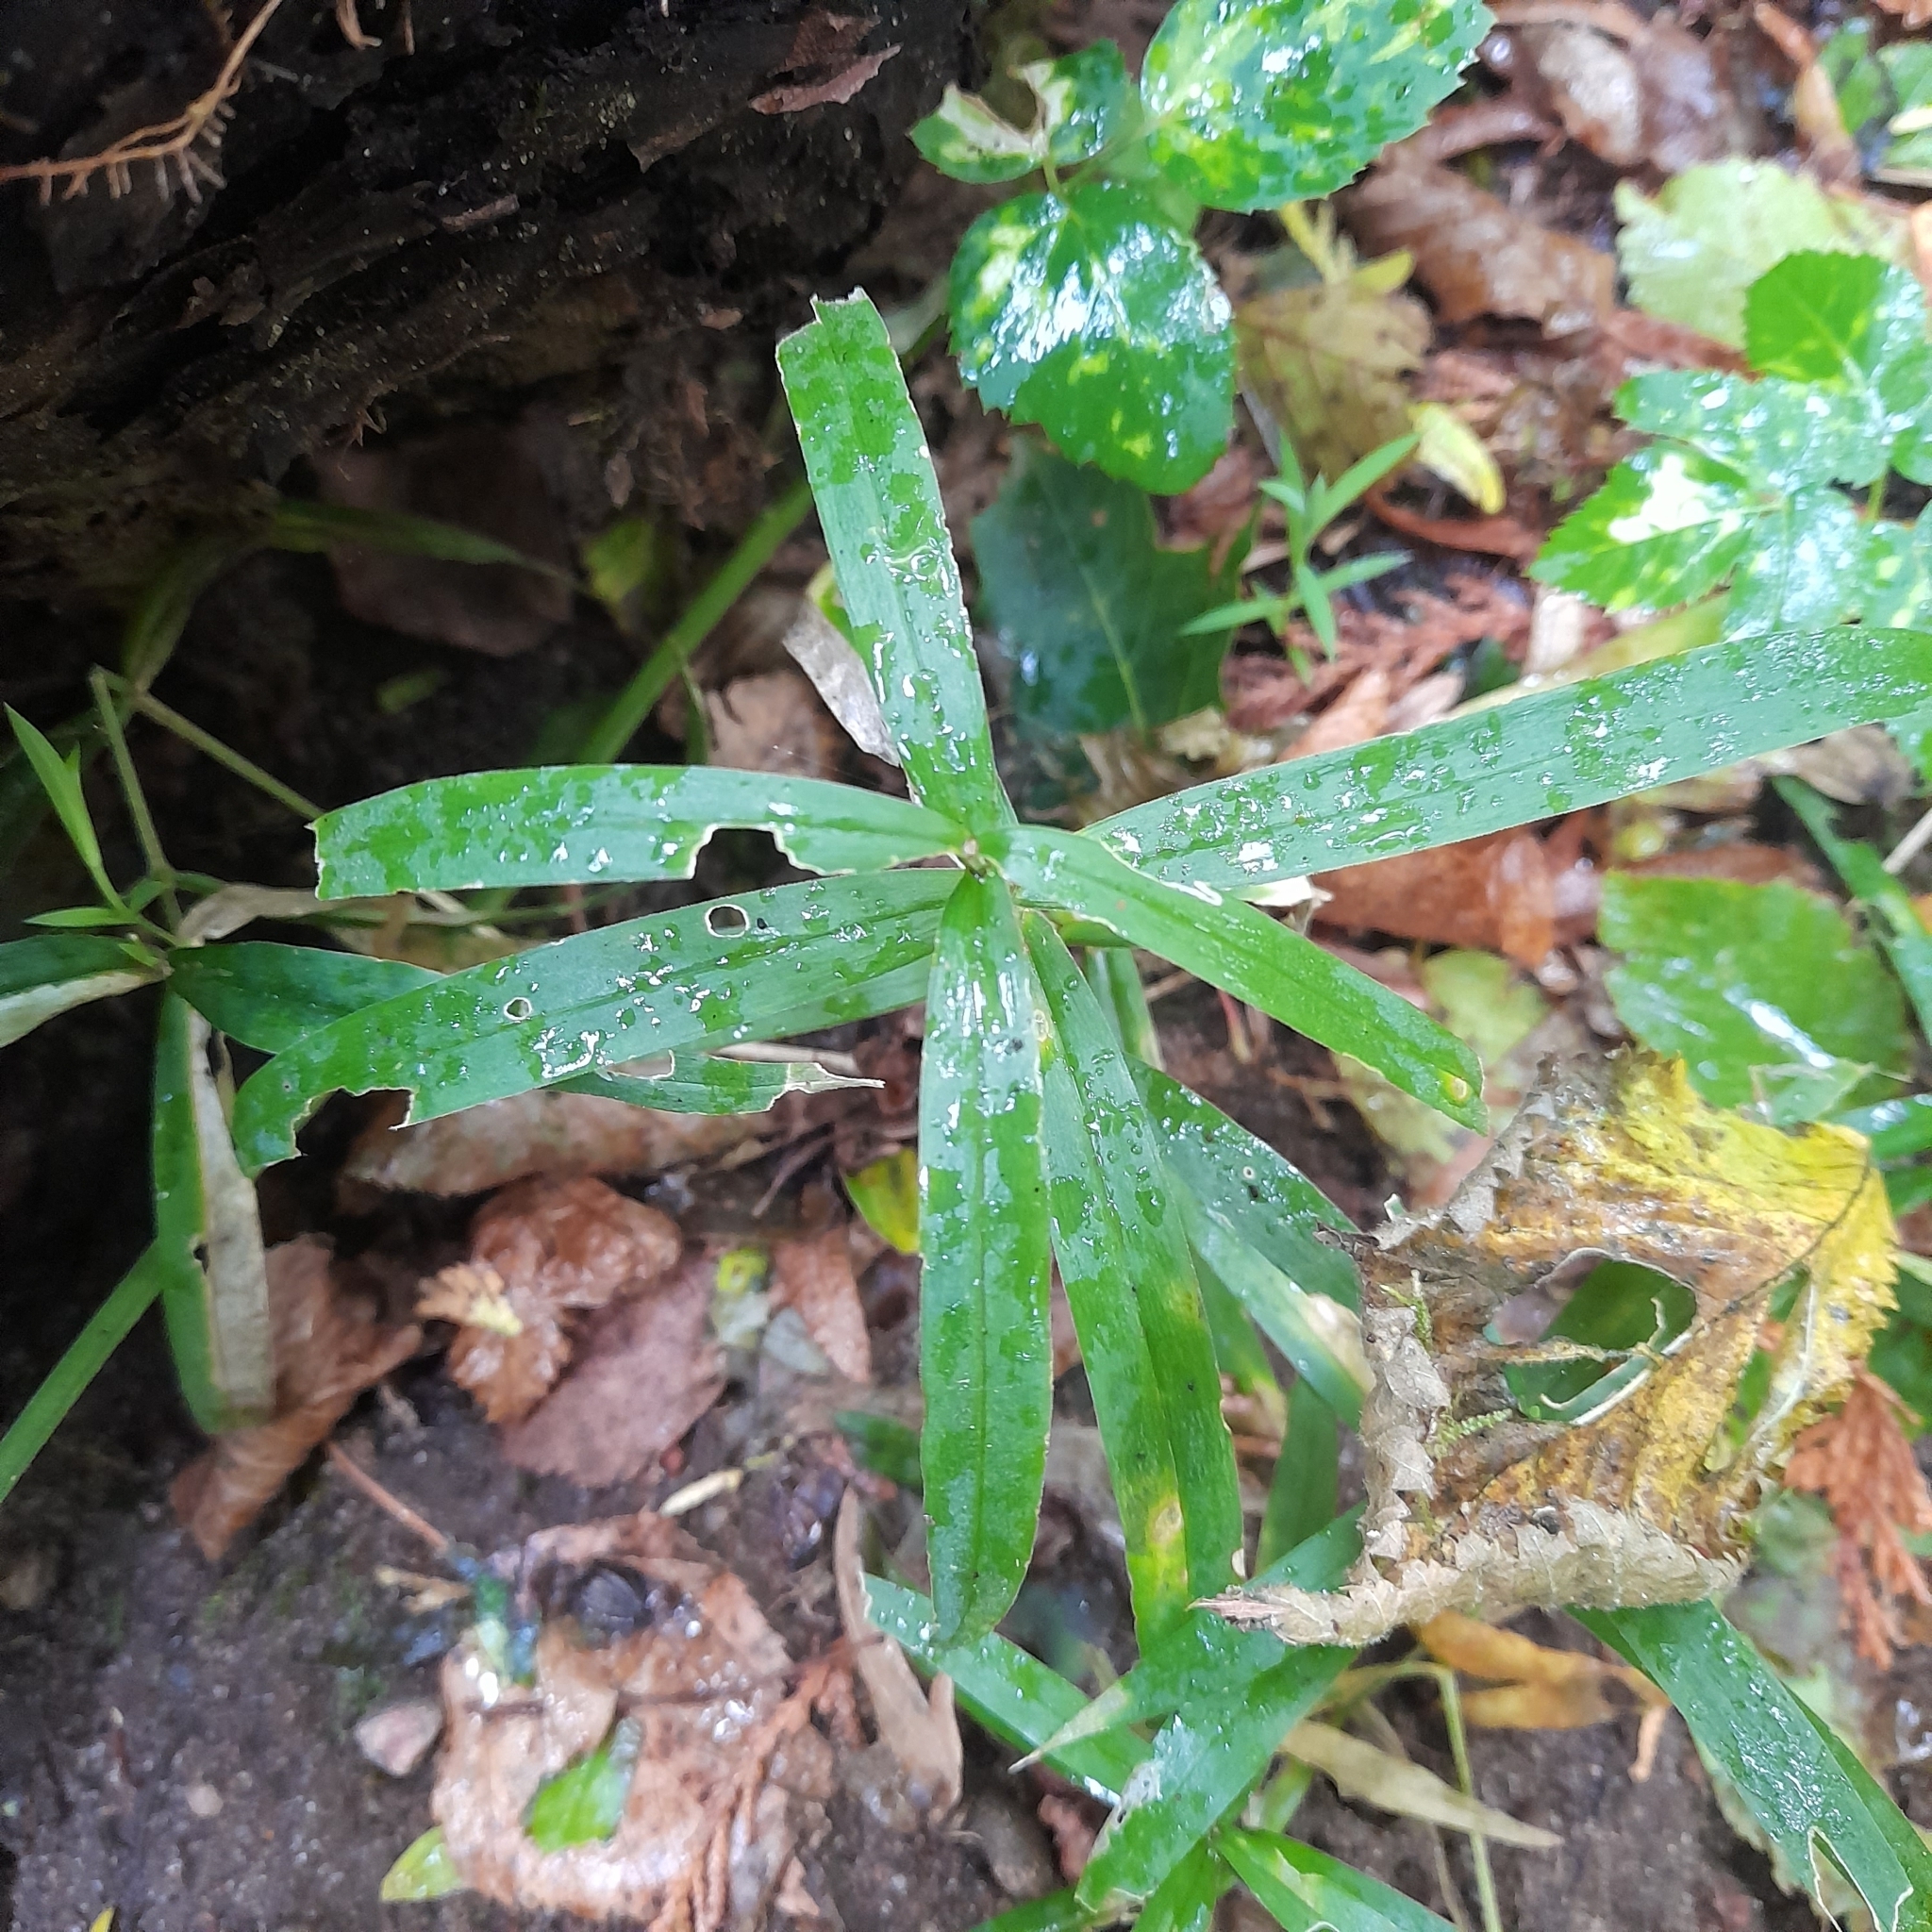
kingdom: Plantae
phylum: Tracheophyta
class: Magnoliopsida
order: Caryophyllales
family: Caryophyllaceae
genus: Rabelera
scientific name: Rabelera holostea
